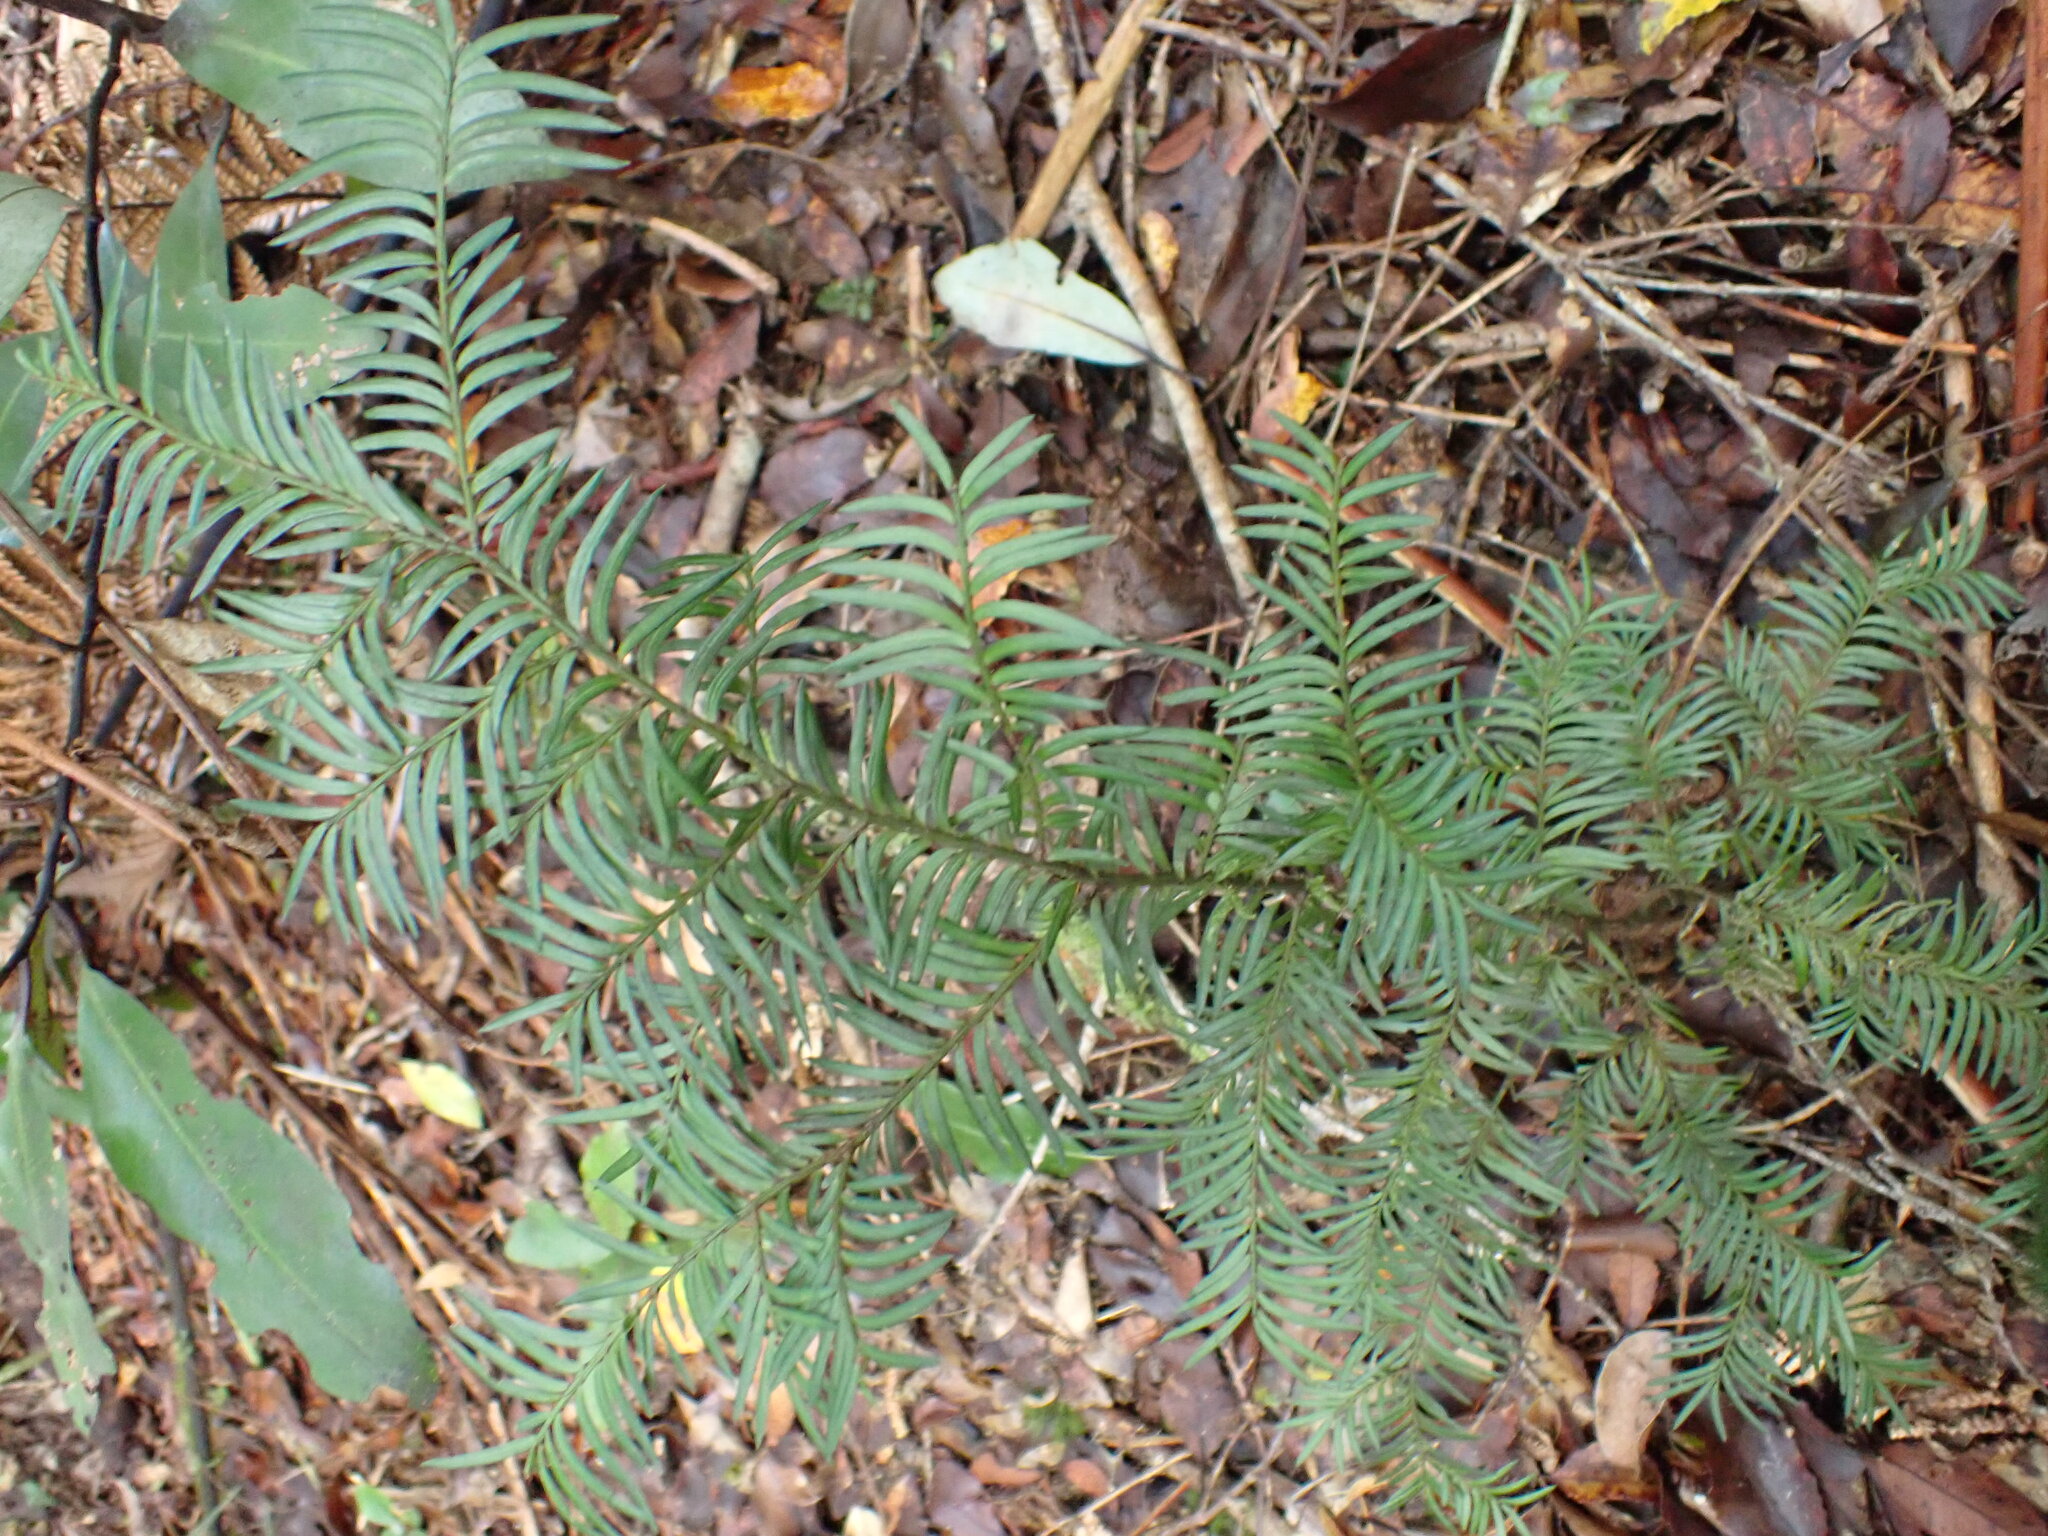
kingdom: Plantae
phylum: Tracheophyta
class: Pinopsida
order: Pinales
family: Podocarpaceae
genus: Prumnopitys
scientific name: Prumnopitys ferruginea
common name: Brown pine
